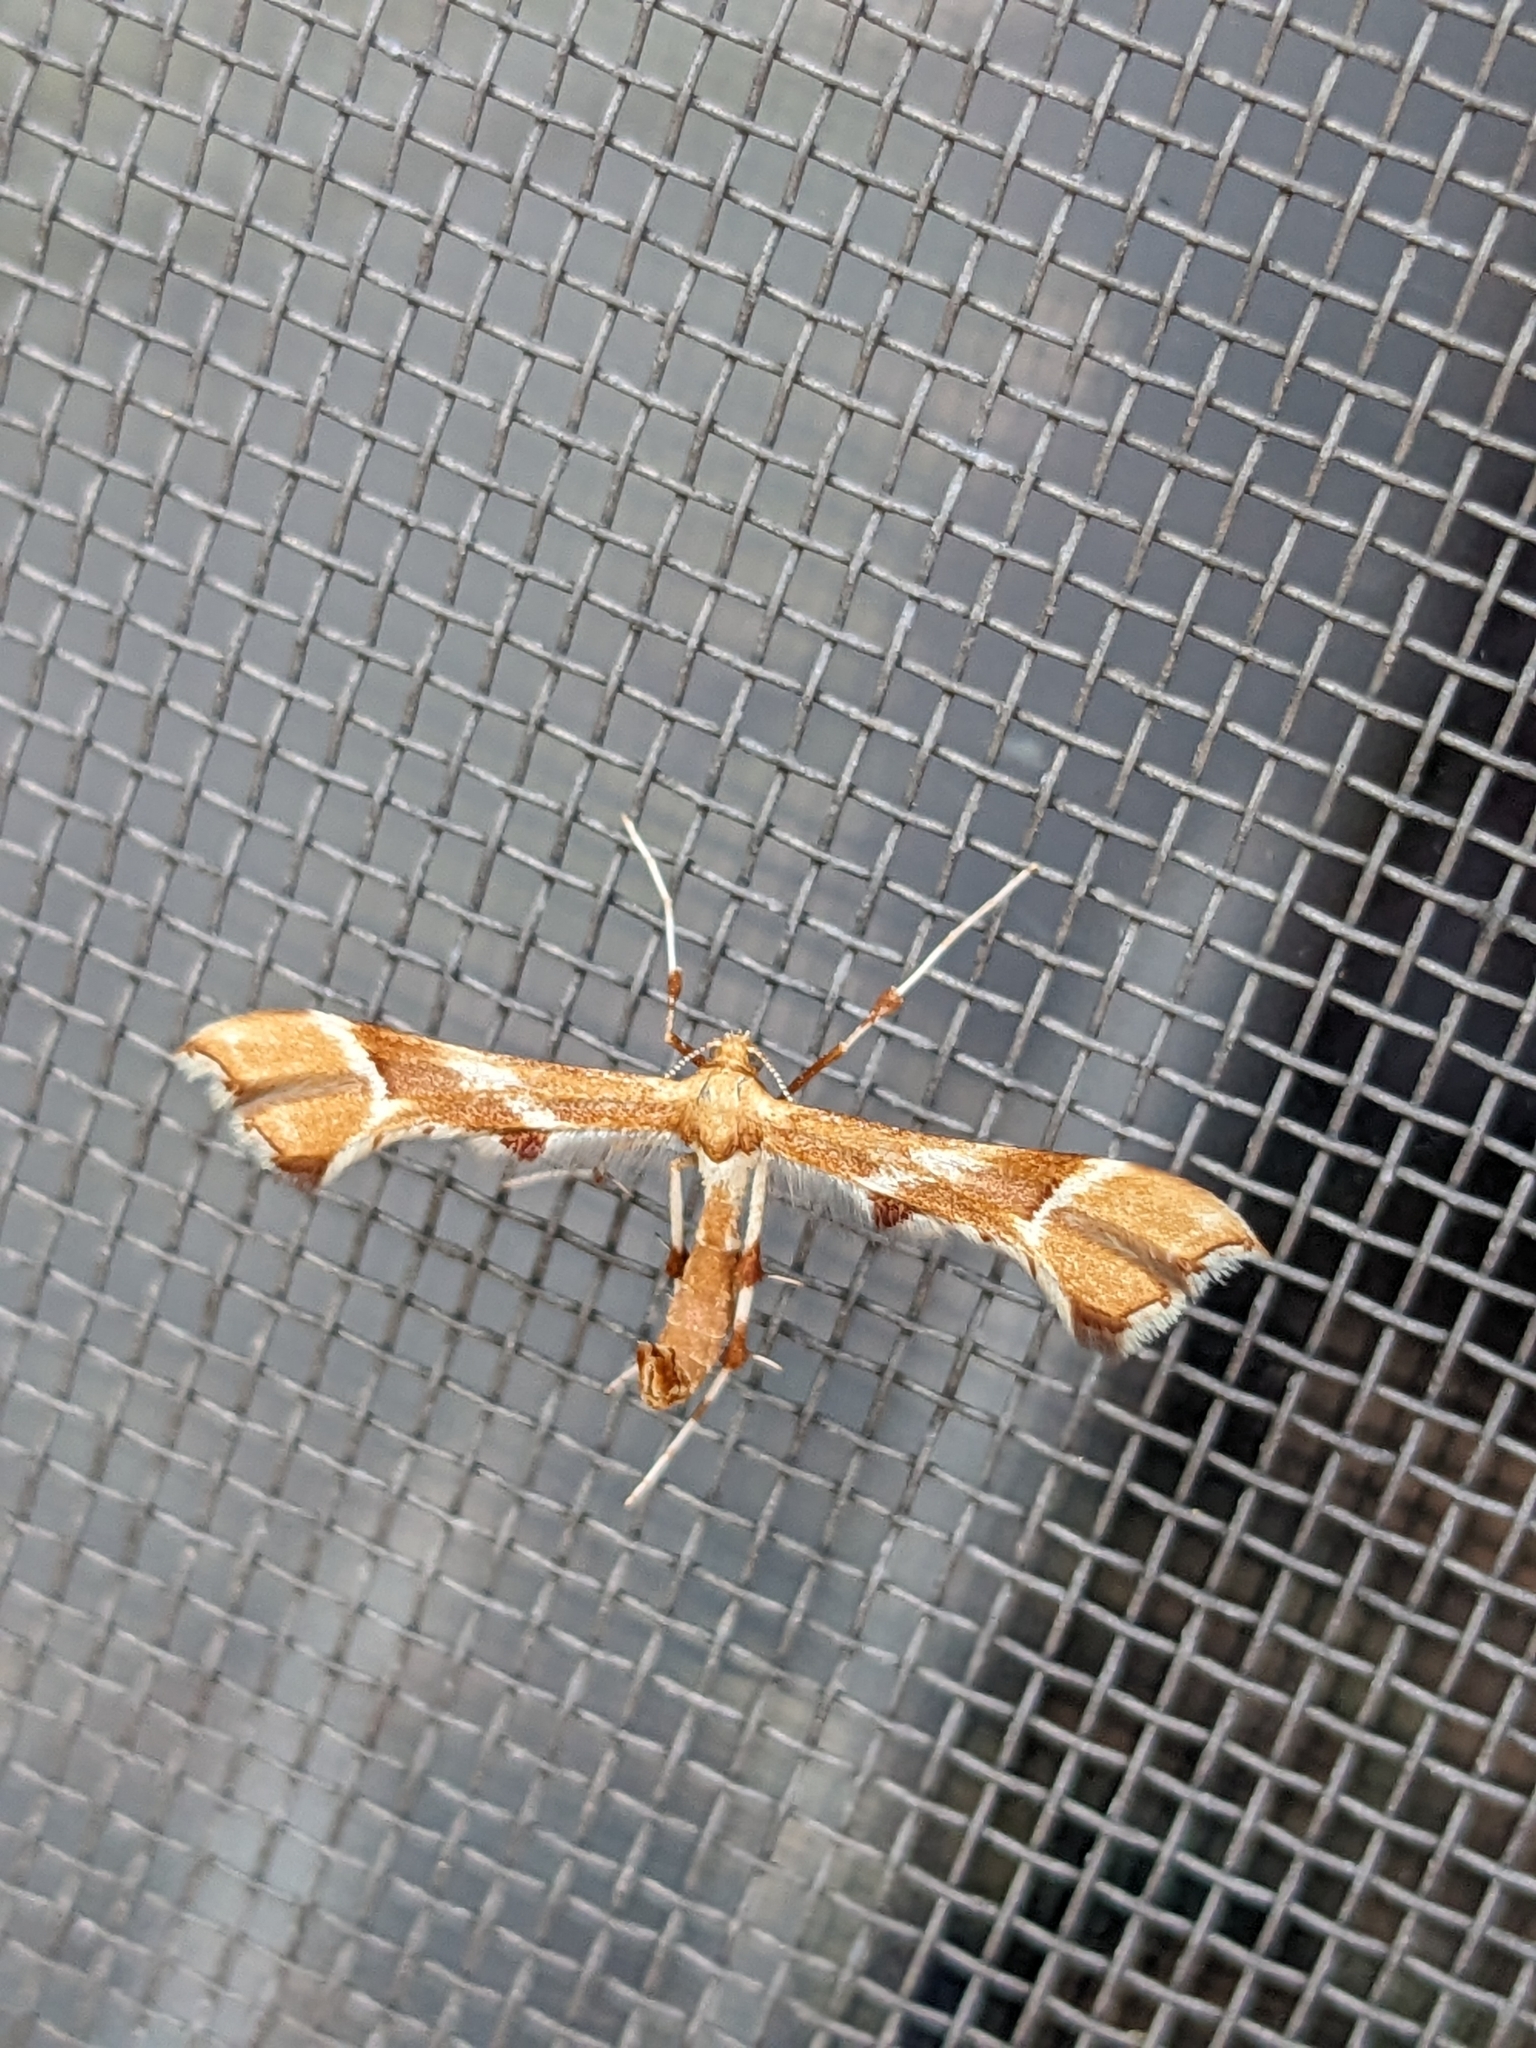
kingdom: Animalia
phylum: Arthropoda
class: Insecta
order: Lepidoptera
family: Pterophoridae
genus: Cnaemidophorus
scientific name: Cnaemidophorus rhododactyla
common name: Rose plume
